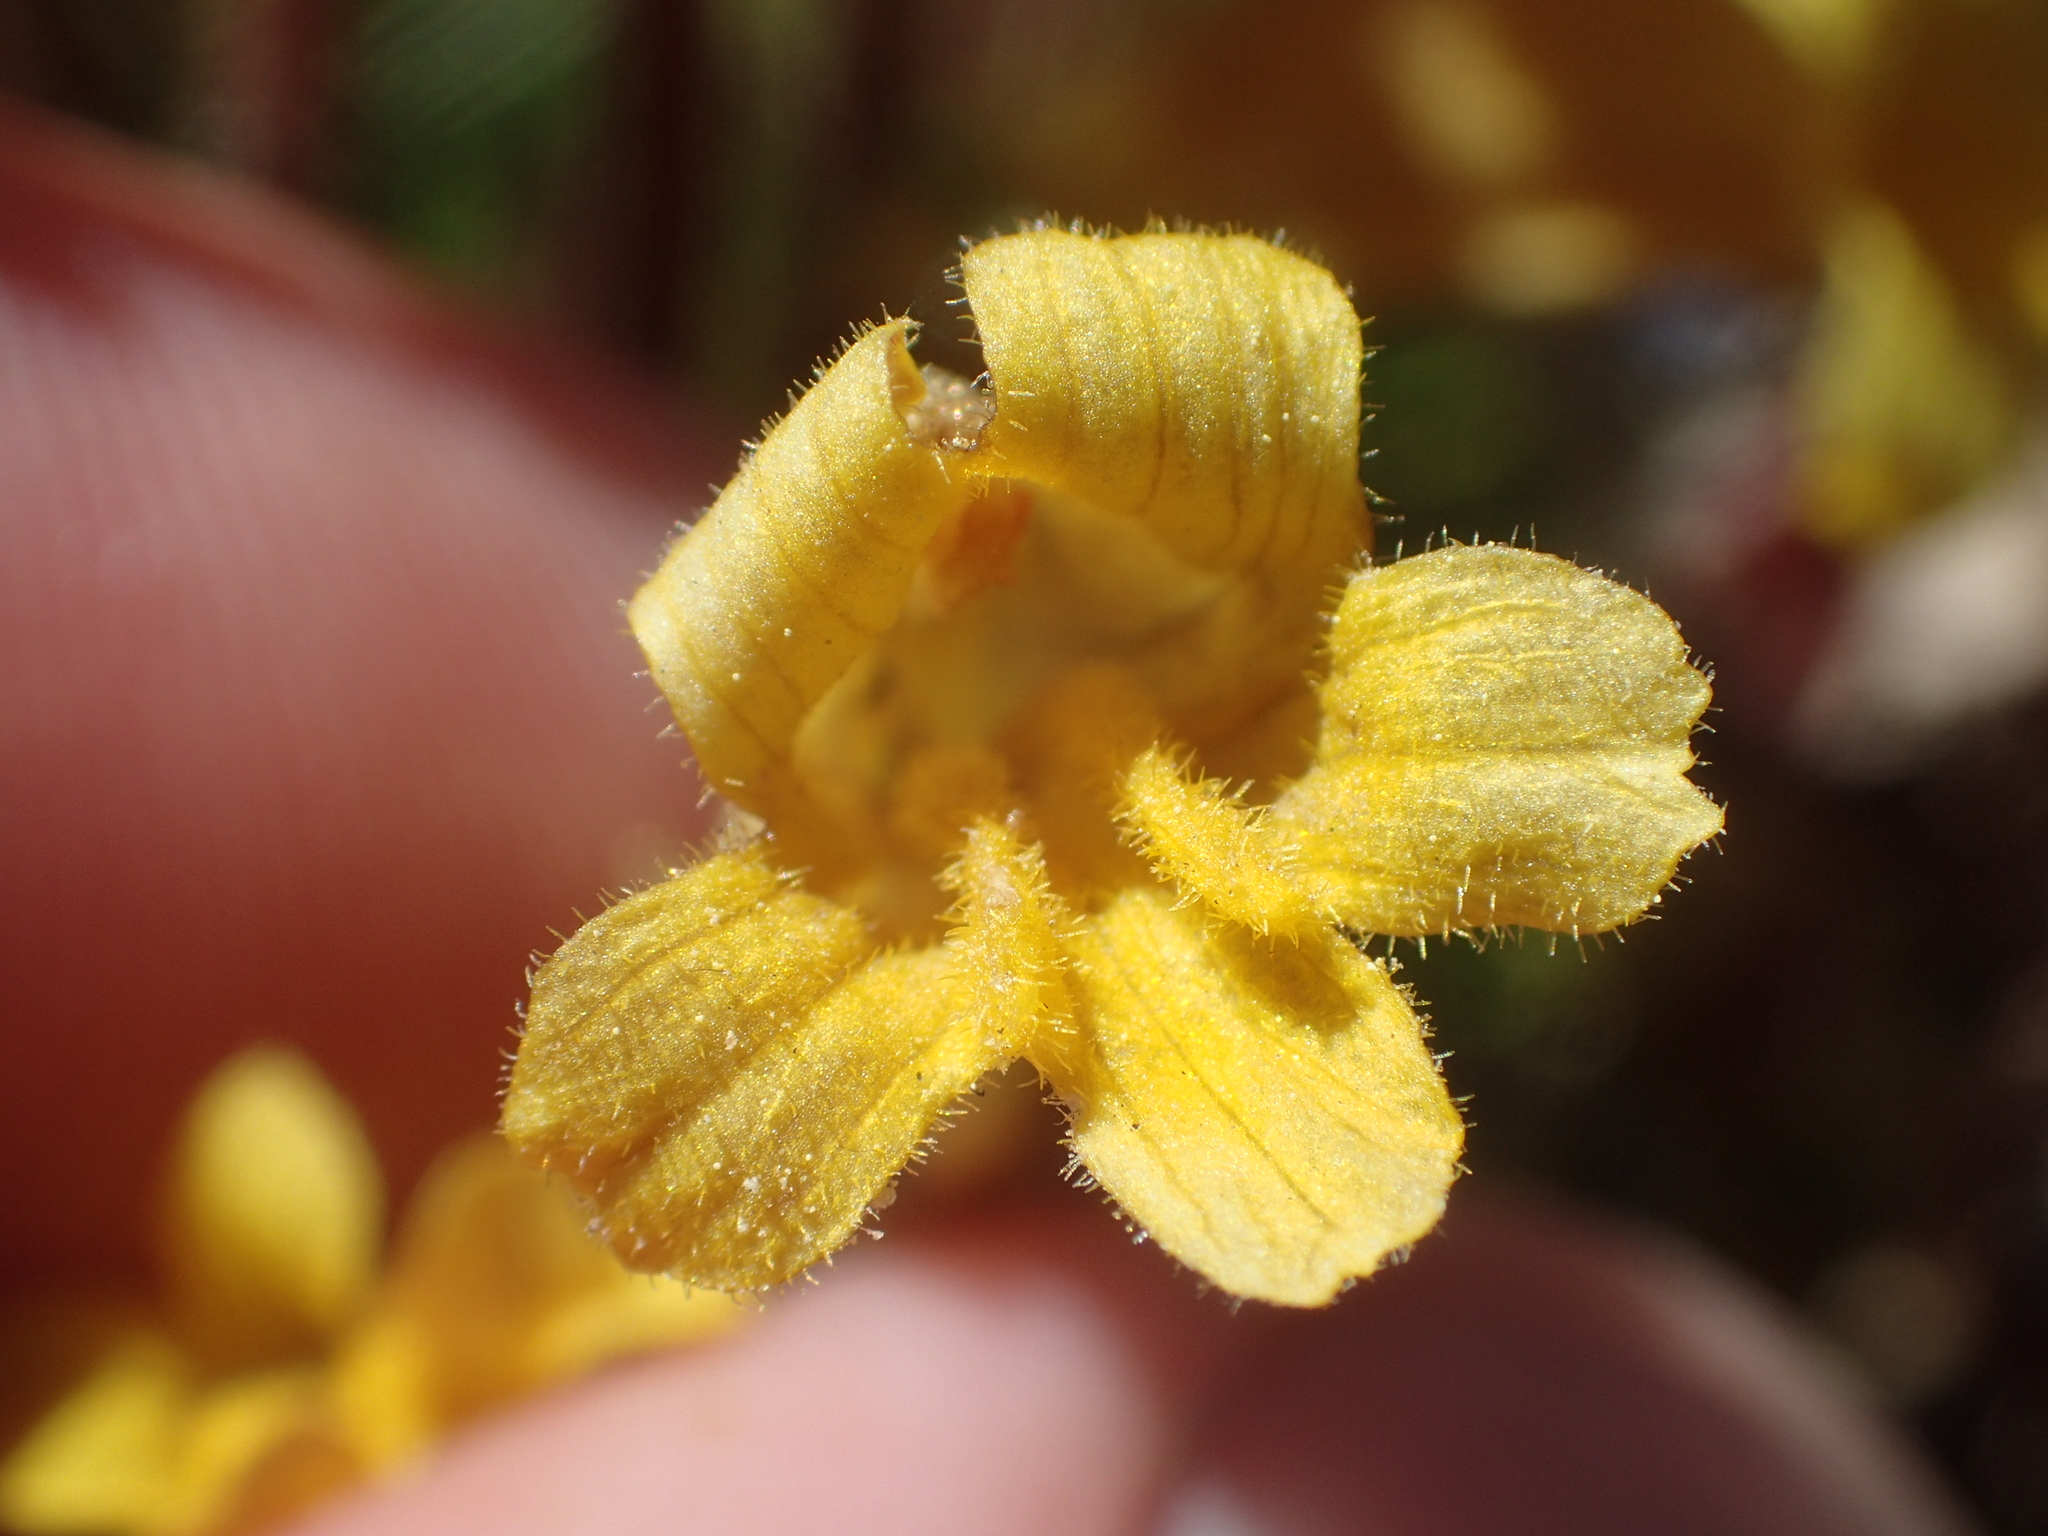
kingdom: Plantae
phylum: Tracheophyta
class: Magnoliopsida
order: Lamiales
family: Orobanchaceae
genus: Aphyllon
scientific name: Aphyllon epigalium
